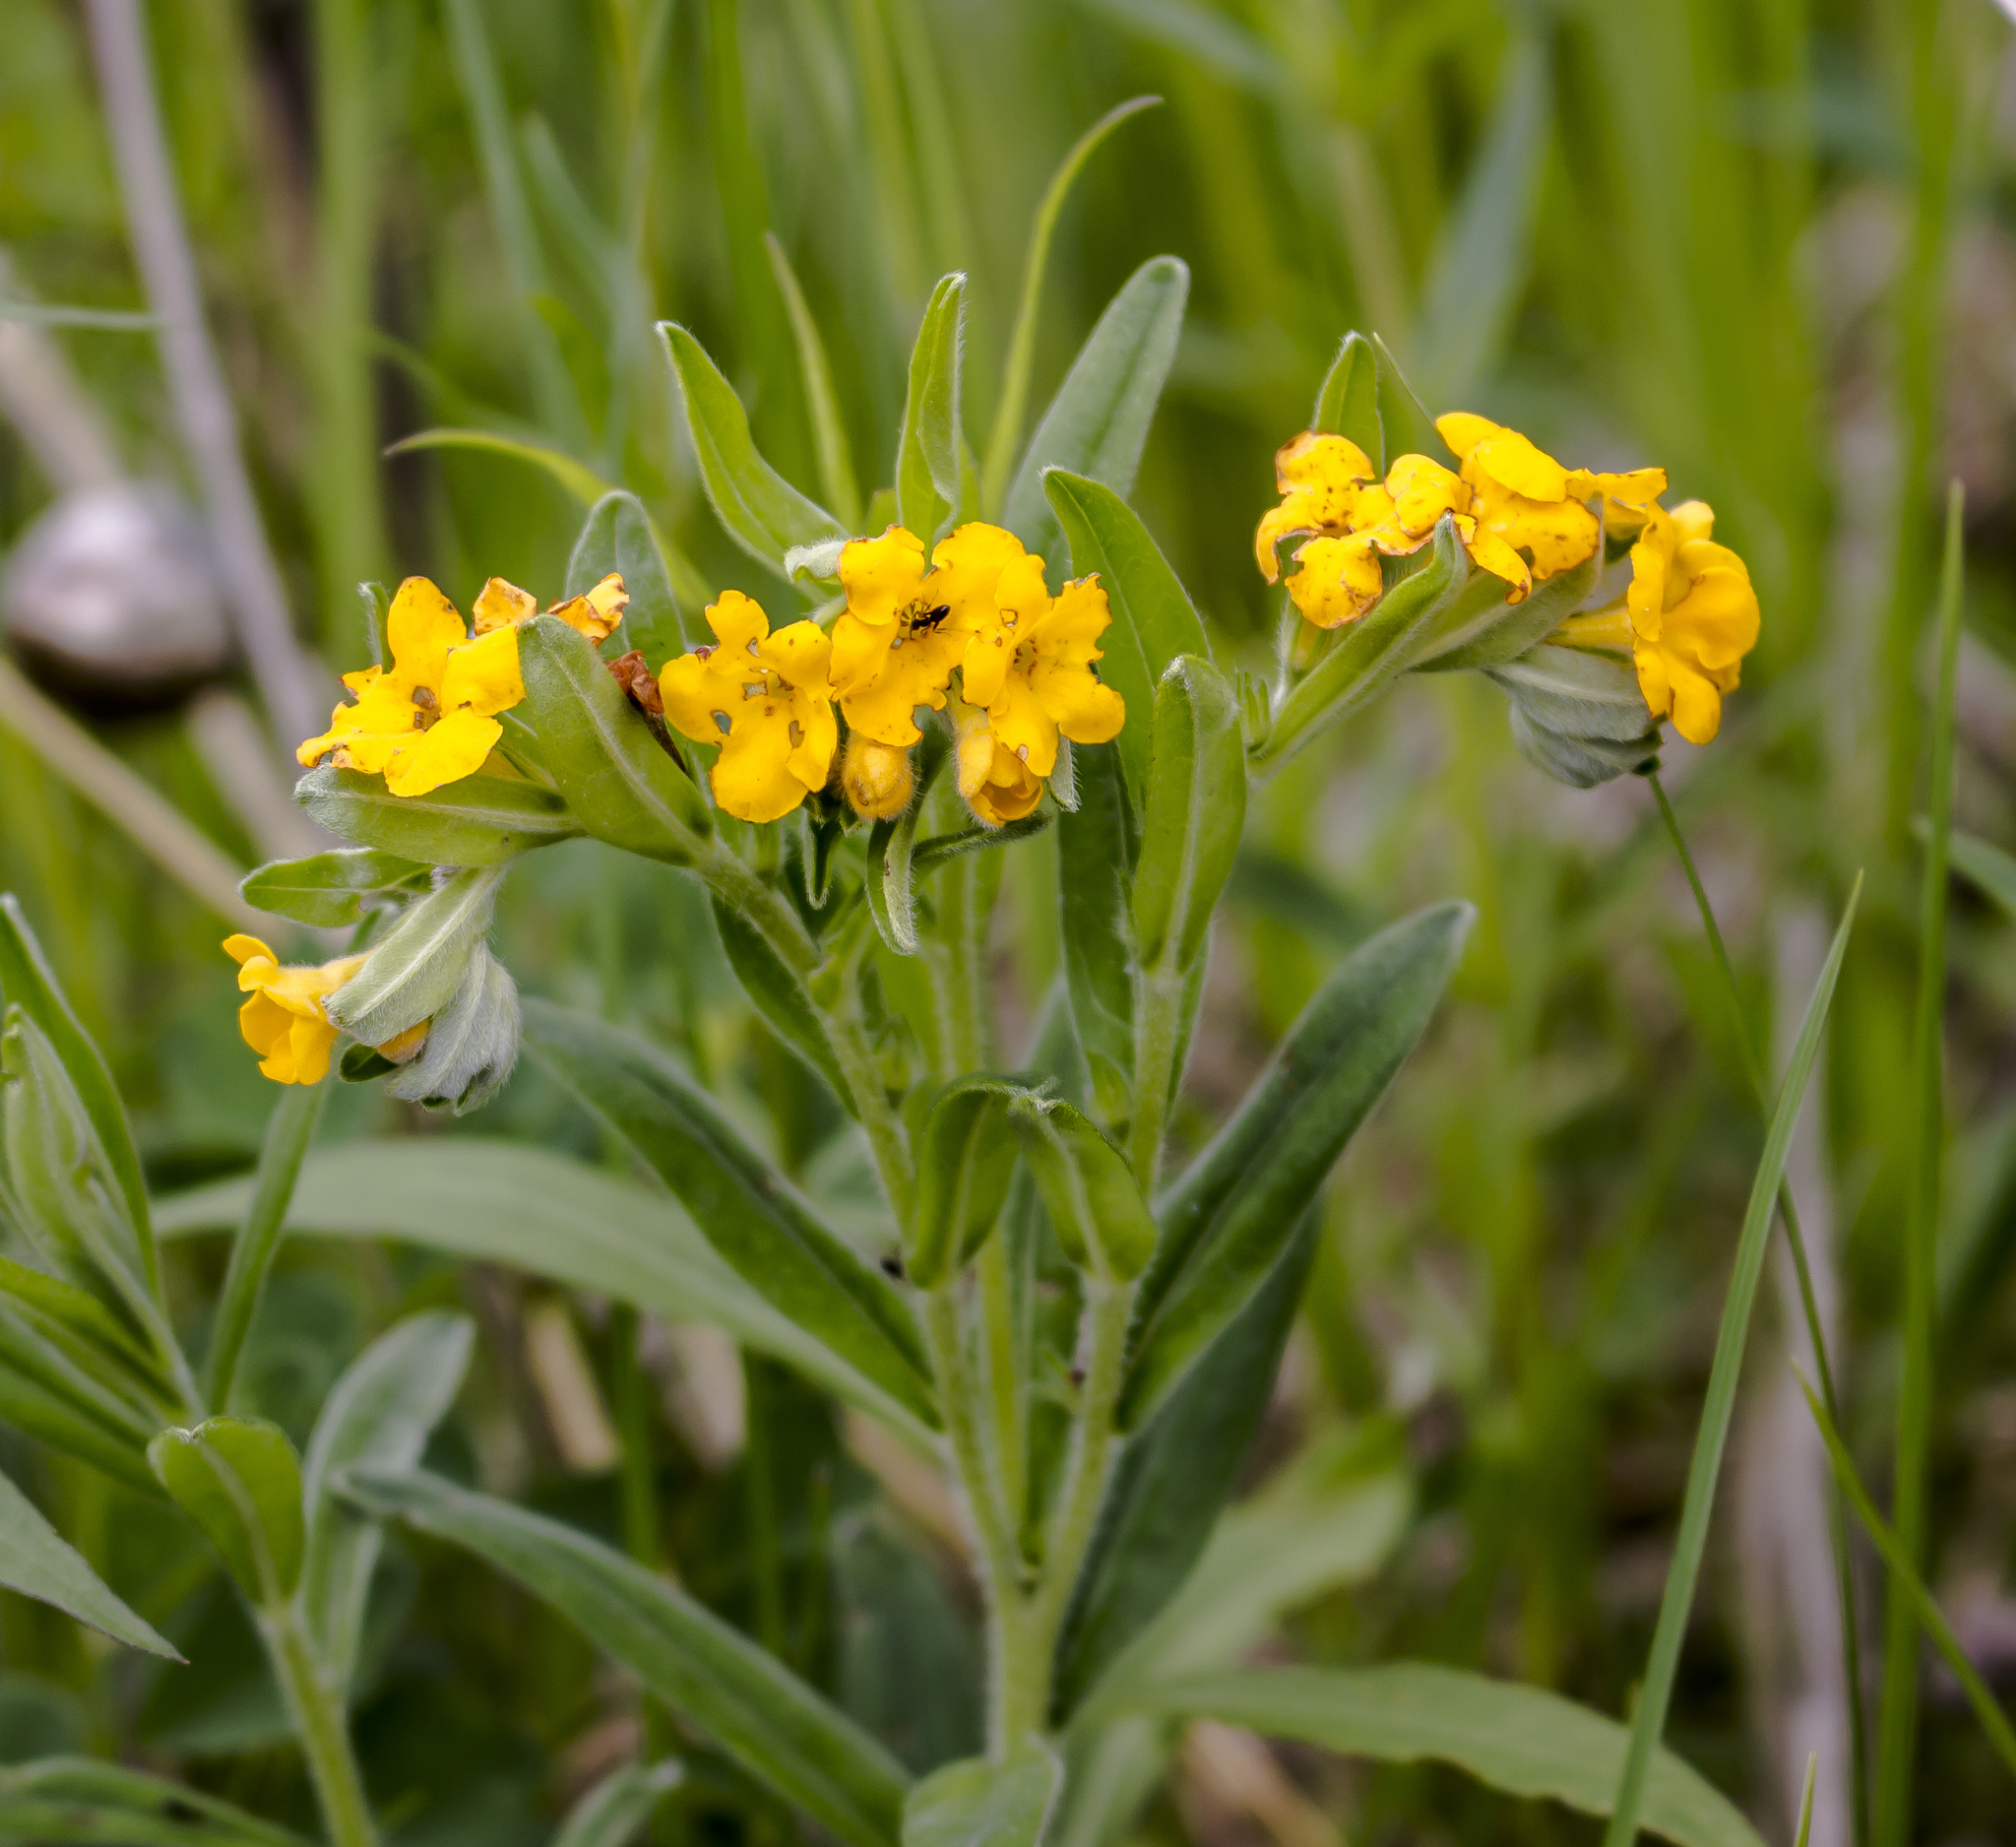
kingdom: Plantae
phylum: Tracheophyta
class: Magnoliopsida
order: Boraginales
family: Boraginaceae
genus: Lithospermum
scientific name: Lithospermum canescens
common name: Hoary puccoon
